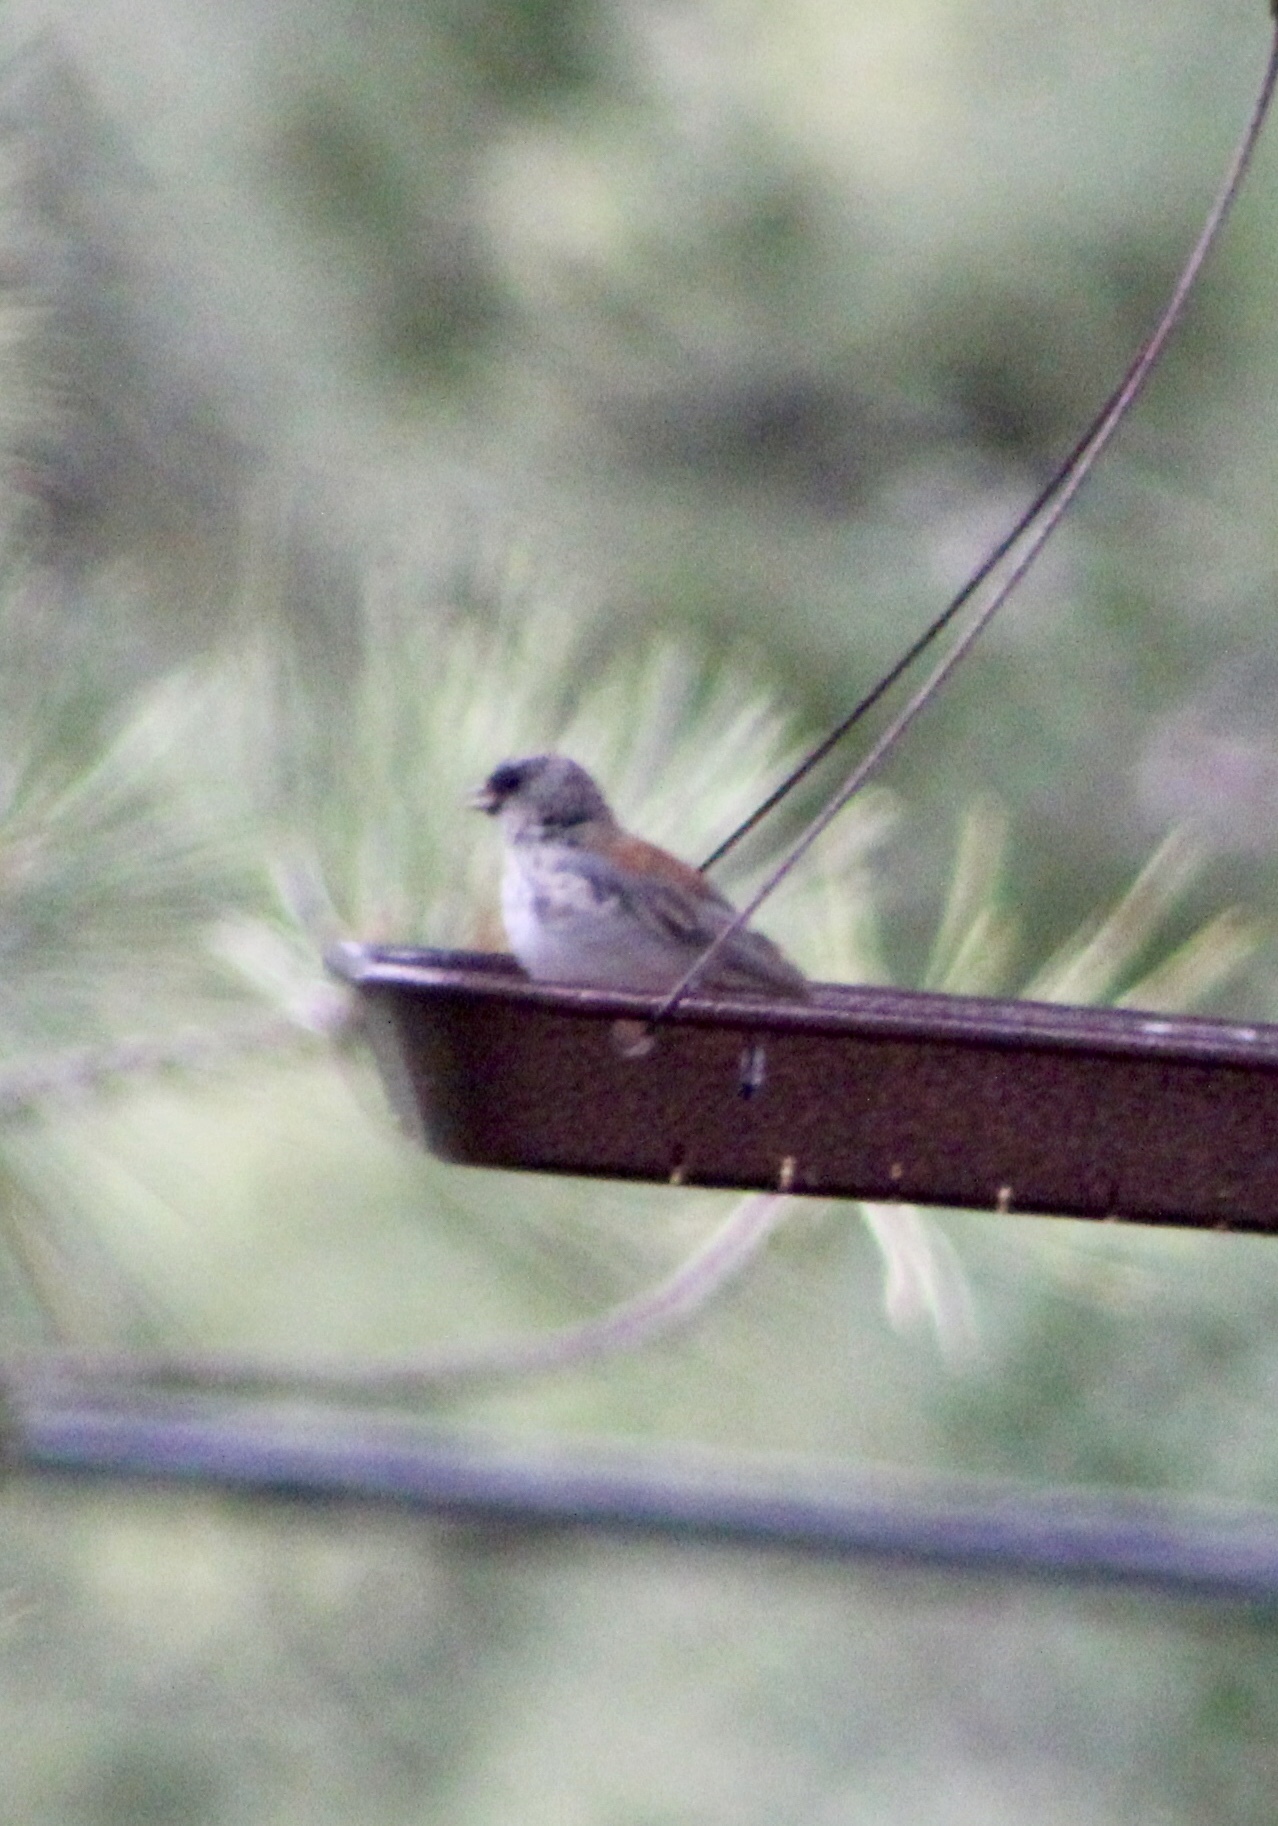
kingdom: Animalia
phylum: Chordata
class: Aves
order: Passeriformes
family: Passerellidae
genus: Junco
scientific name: Junco hyemalis
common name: Dark-eyed junco
